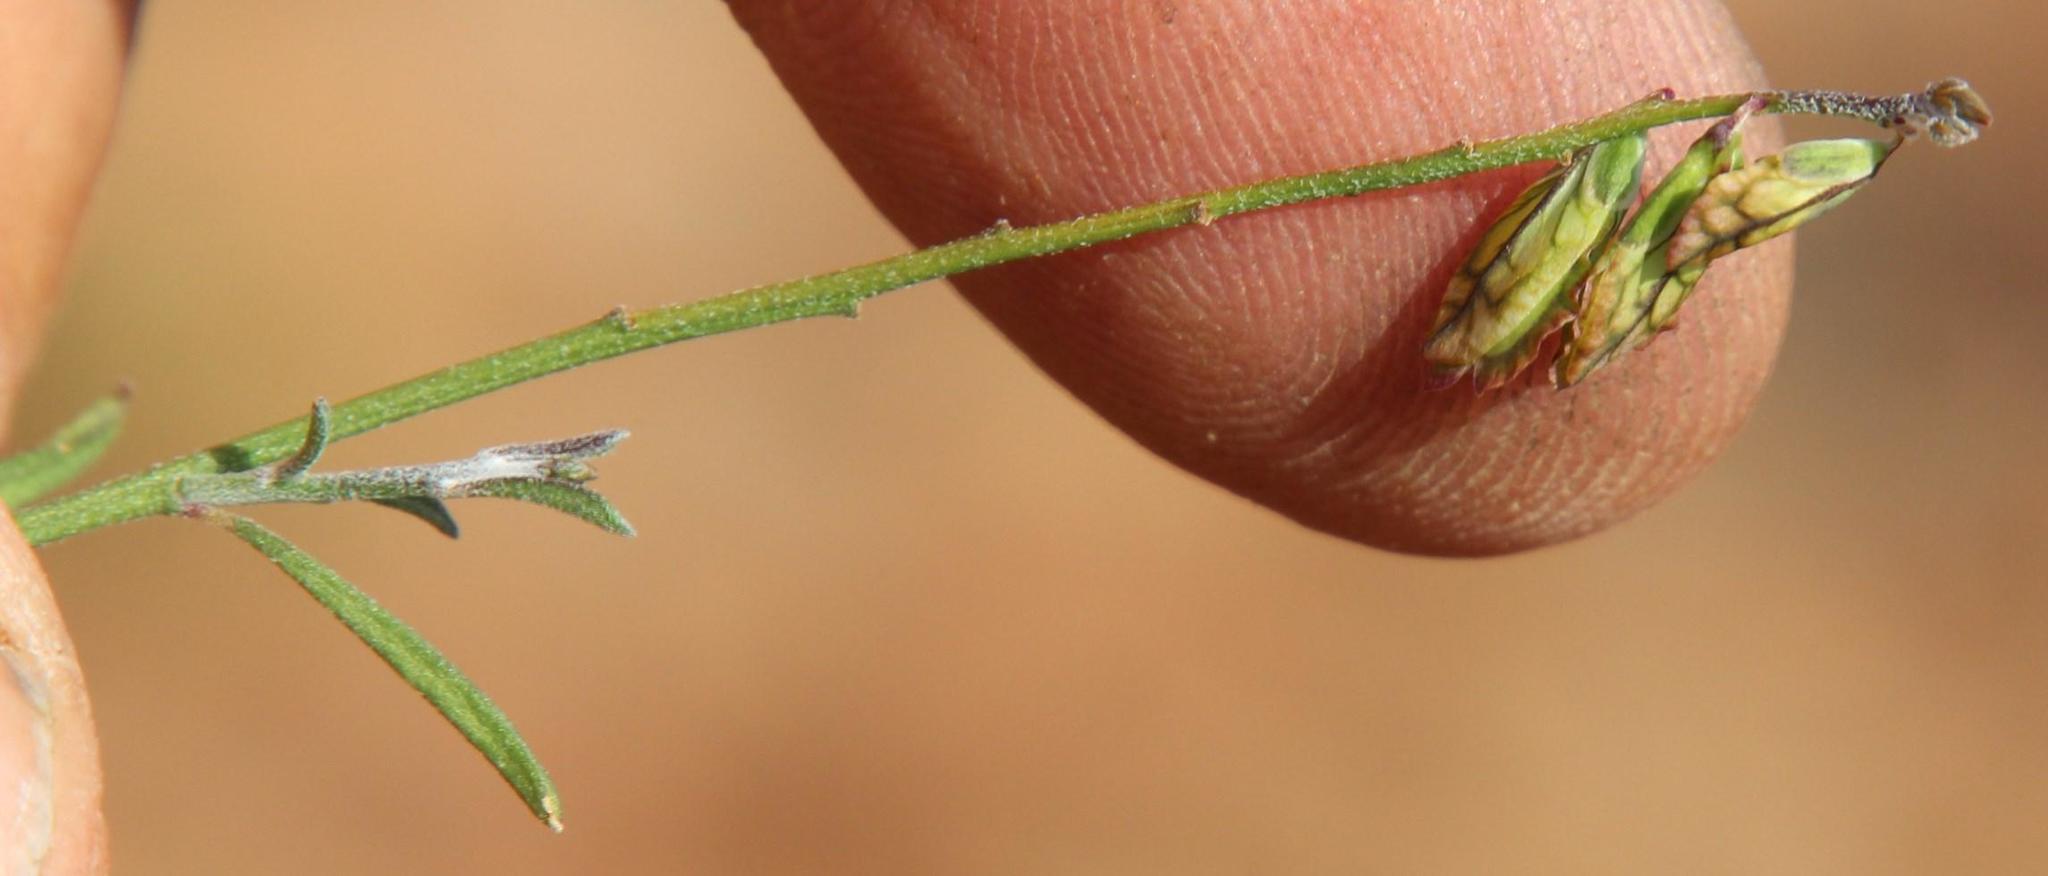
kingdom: Plantae
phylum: Tracheophyta
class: Magnoliopsida
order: Fabales
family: Polygalaceae
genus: Polygala
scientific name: Polygala leptophylla
